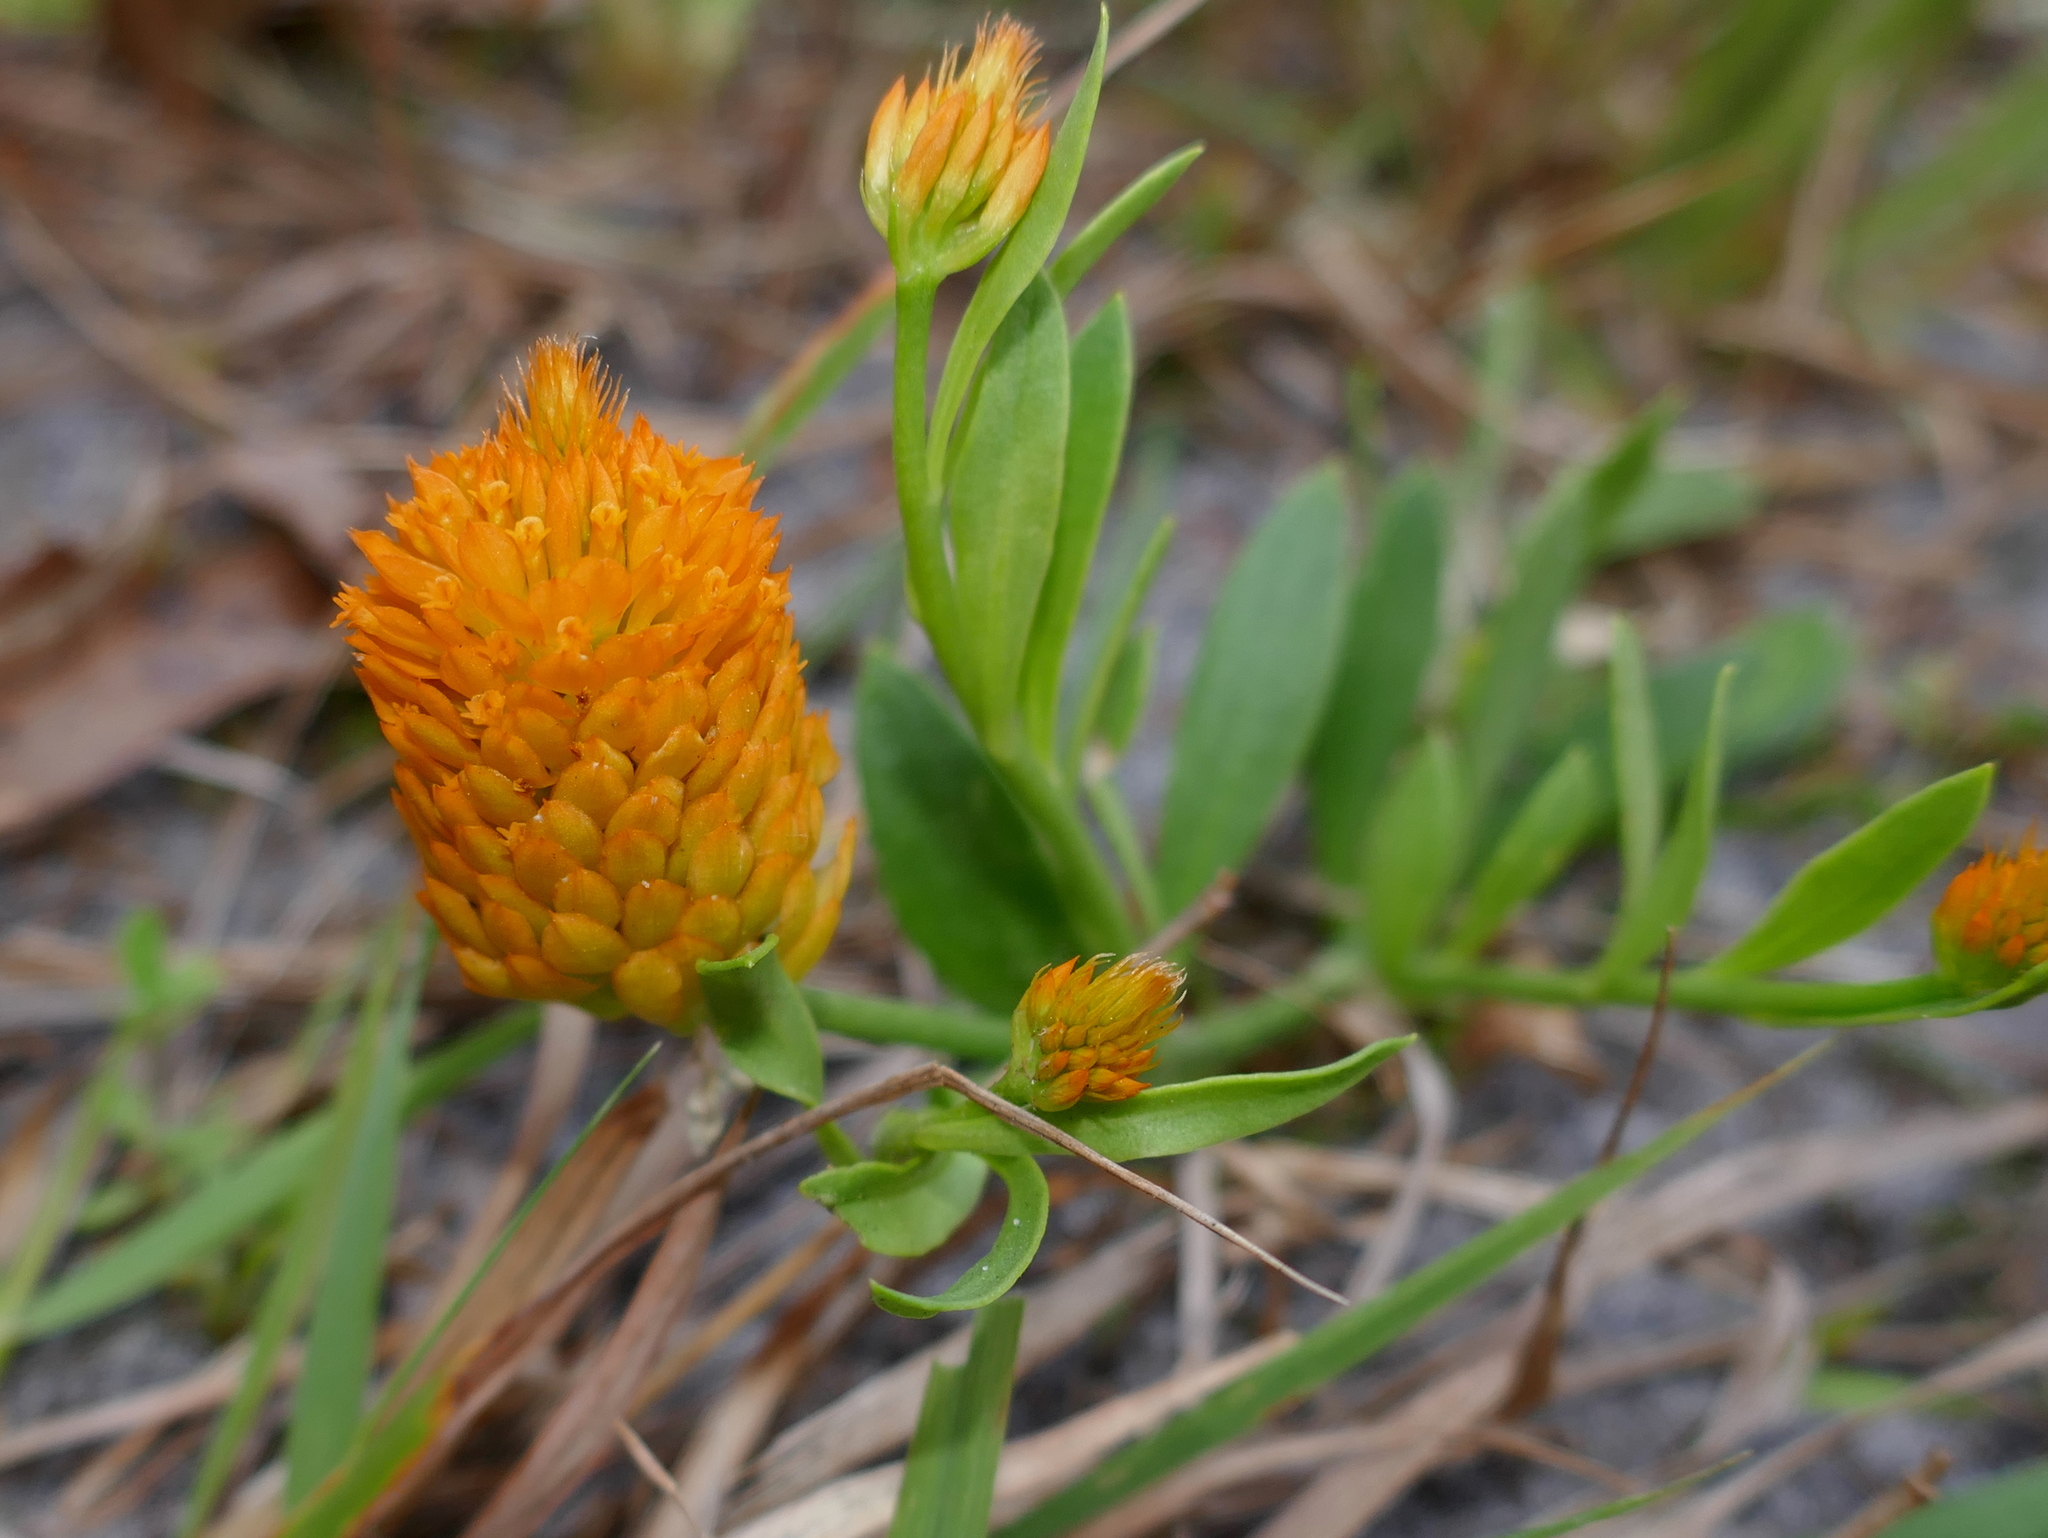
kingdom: Plantae
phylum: Tracheophyta
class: Magnoliopsida
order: Fabales
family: Polygalaceae
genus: Polygala
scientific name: Polygala lutea
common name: Orange milkwort
